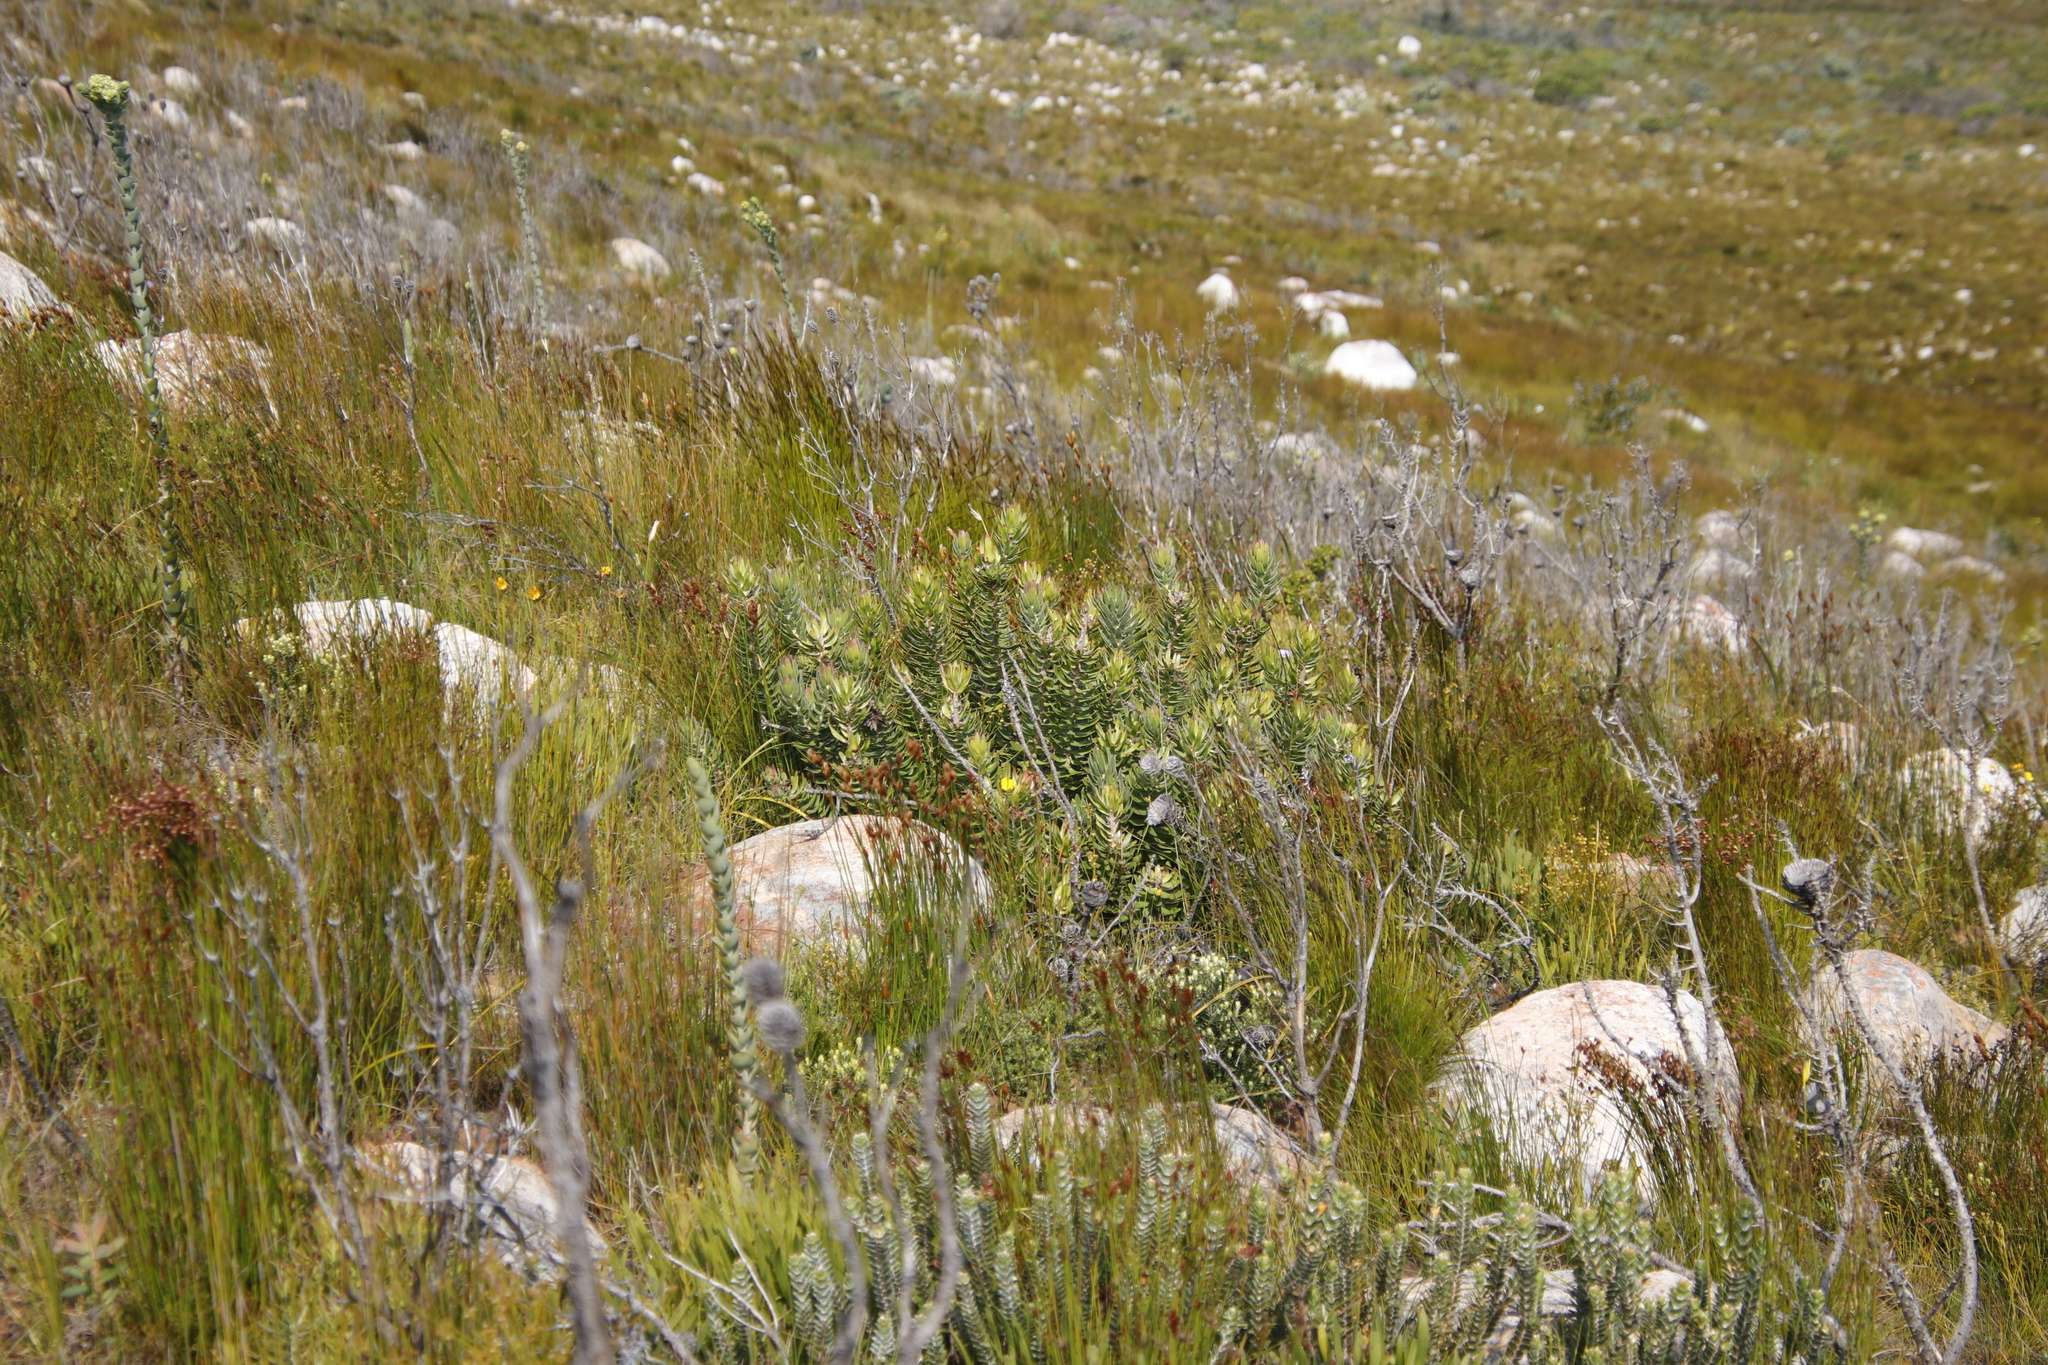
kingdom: Plantae
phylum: Tracheophyta
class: Magnoliopsida
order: Proteales
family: Proteaceae
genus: Mimetes
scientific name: Mimetes cucullatus
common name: Common pagoda
